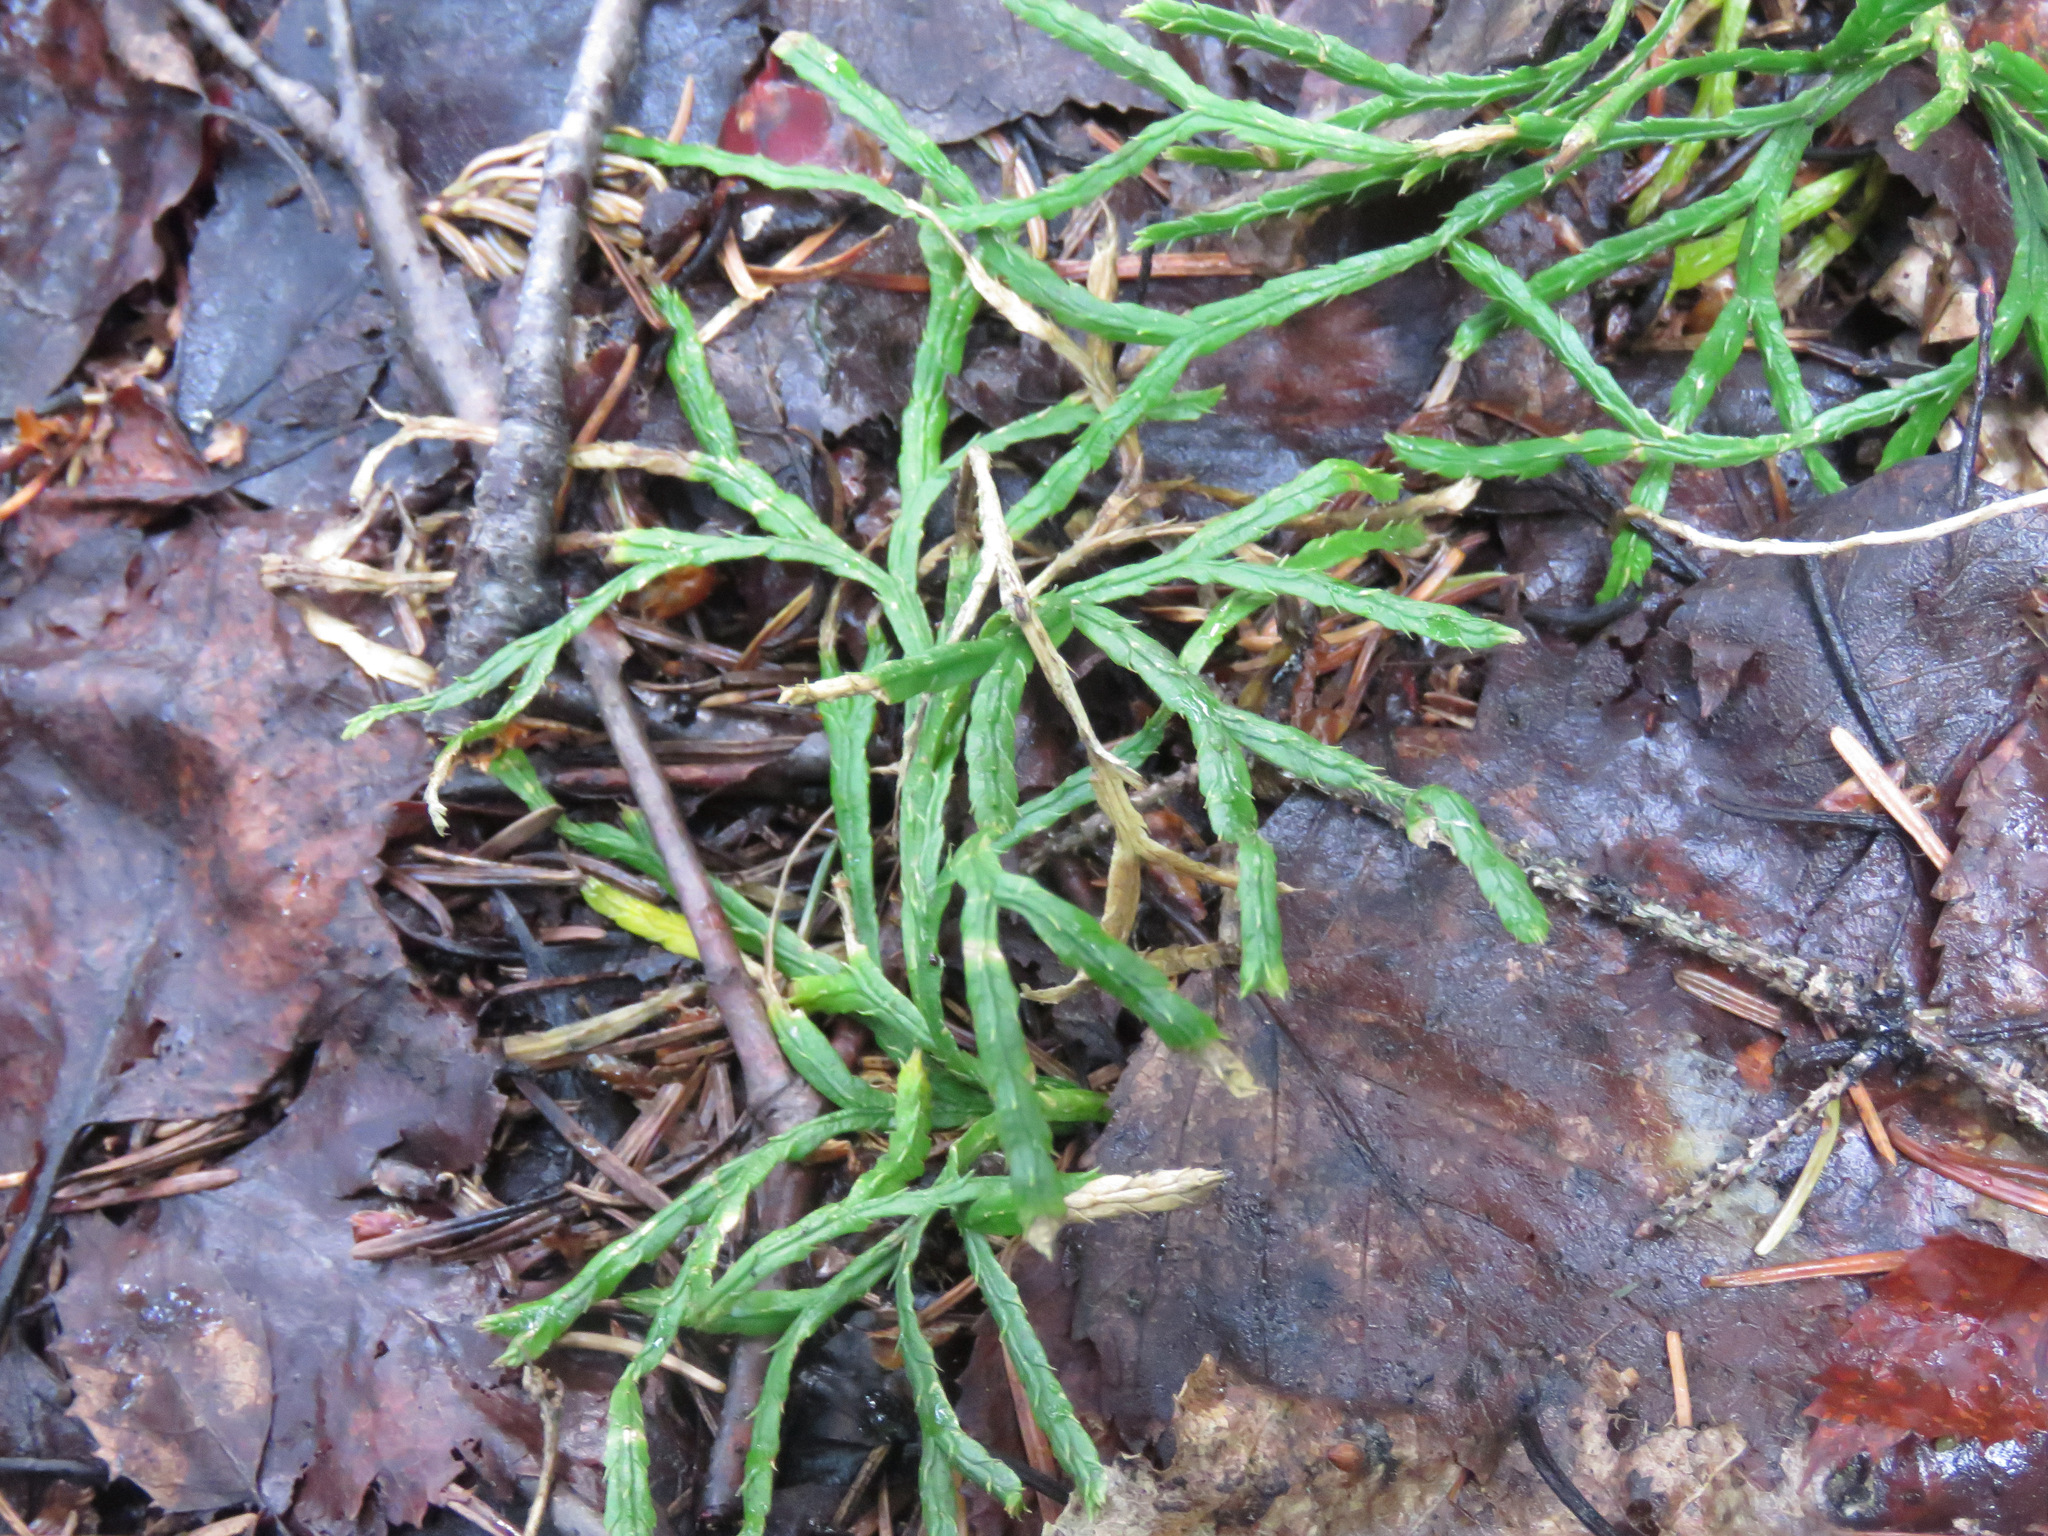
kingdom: Plantae
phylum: Tracheophyta
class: Lycopodiopsida
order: Lycopodiales
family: Lycopodiaceae
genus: Diphasiastrum
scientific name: Diphasiastrum complanatum
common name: Northern running-pine
